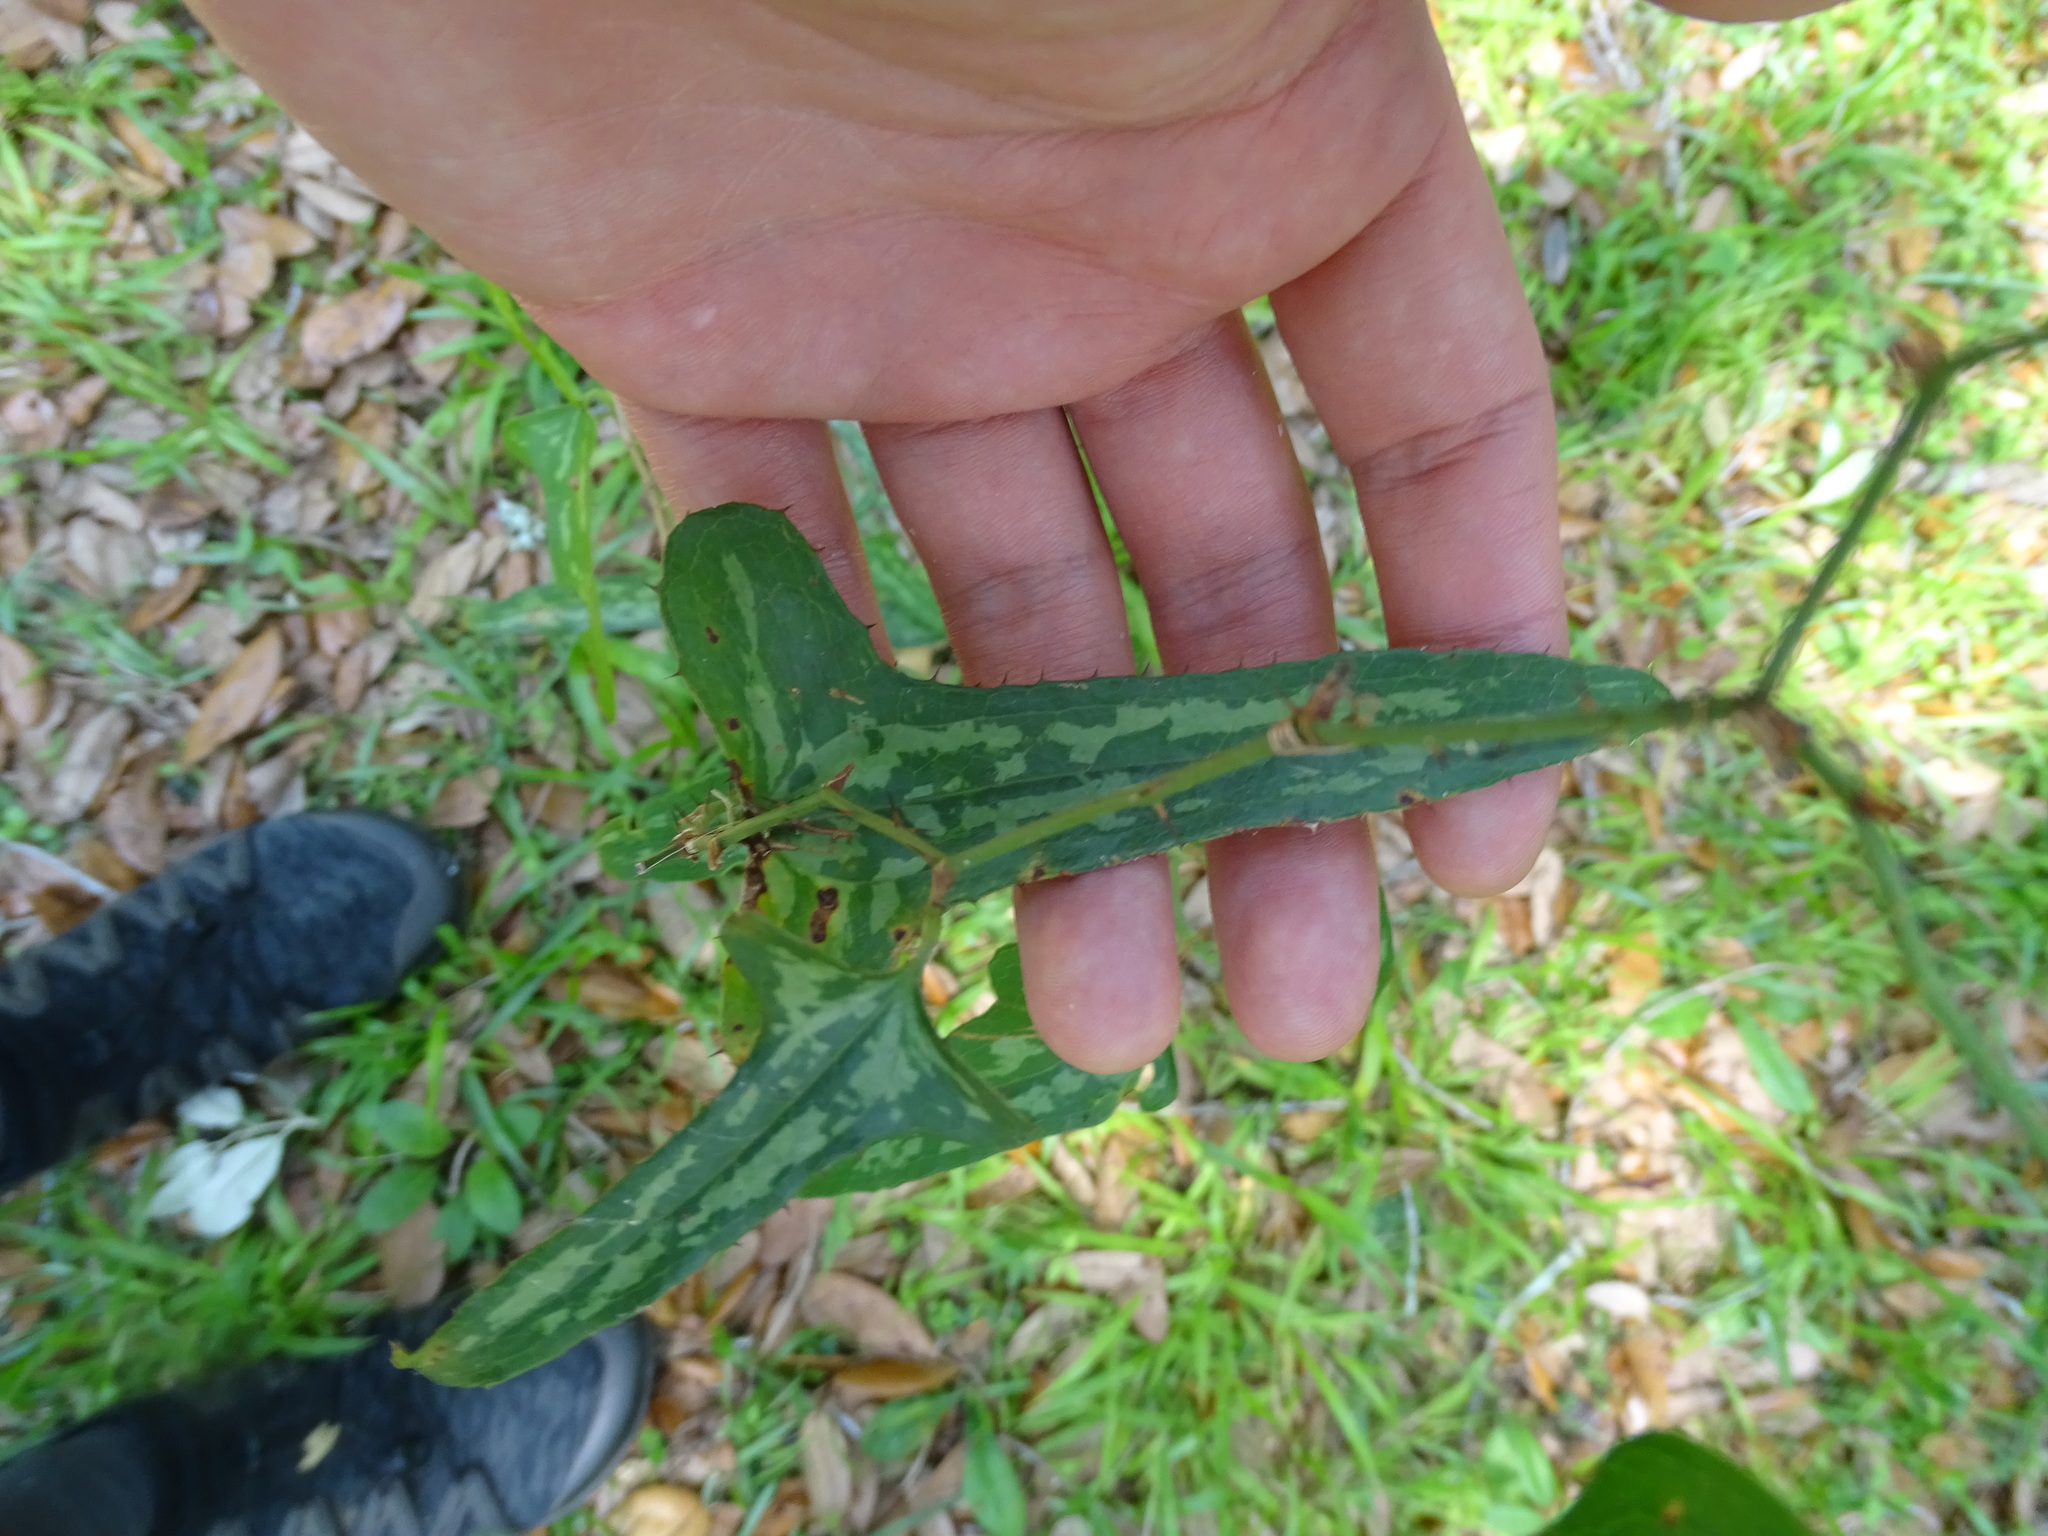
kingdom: Plantae
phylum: Tracheophyta
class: Liliopsida
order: Liliales
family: Smilacaceae
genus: Smilax
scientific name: Smilax bona-nox
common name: Catbrier
